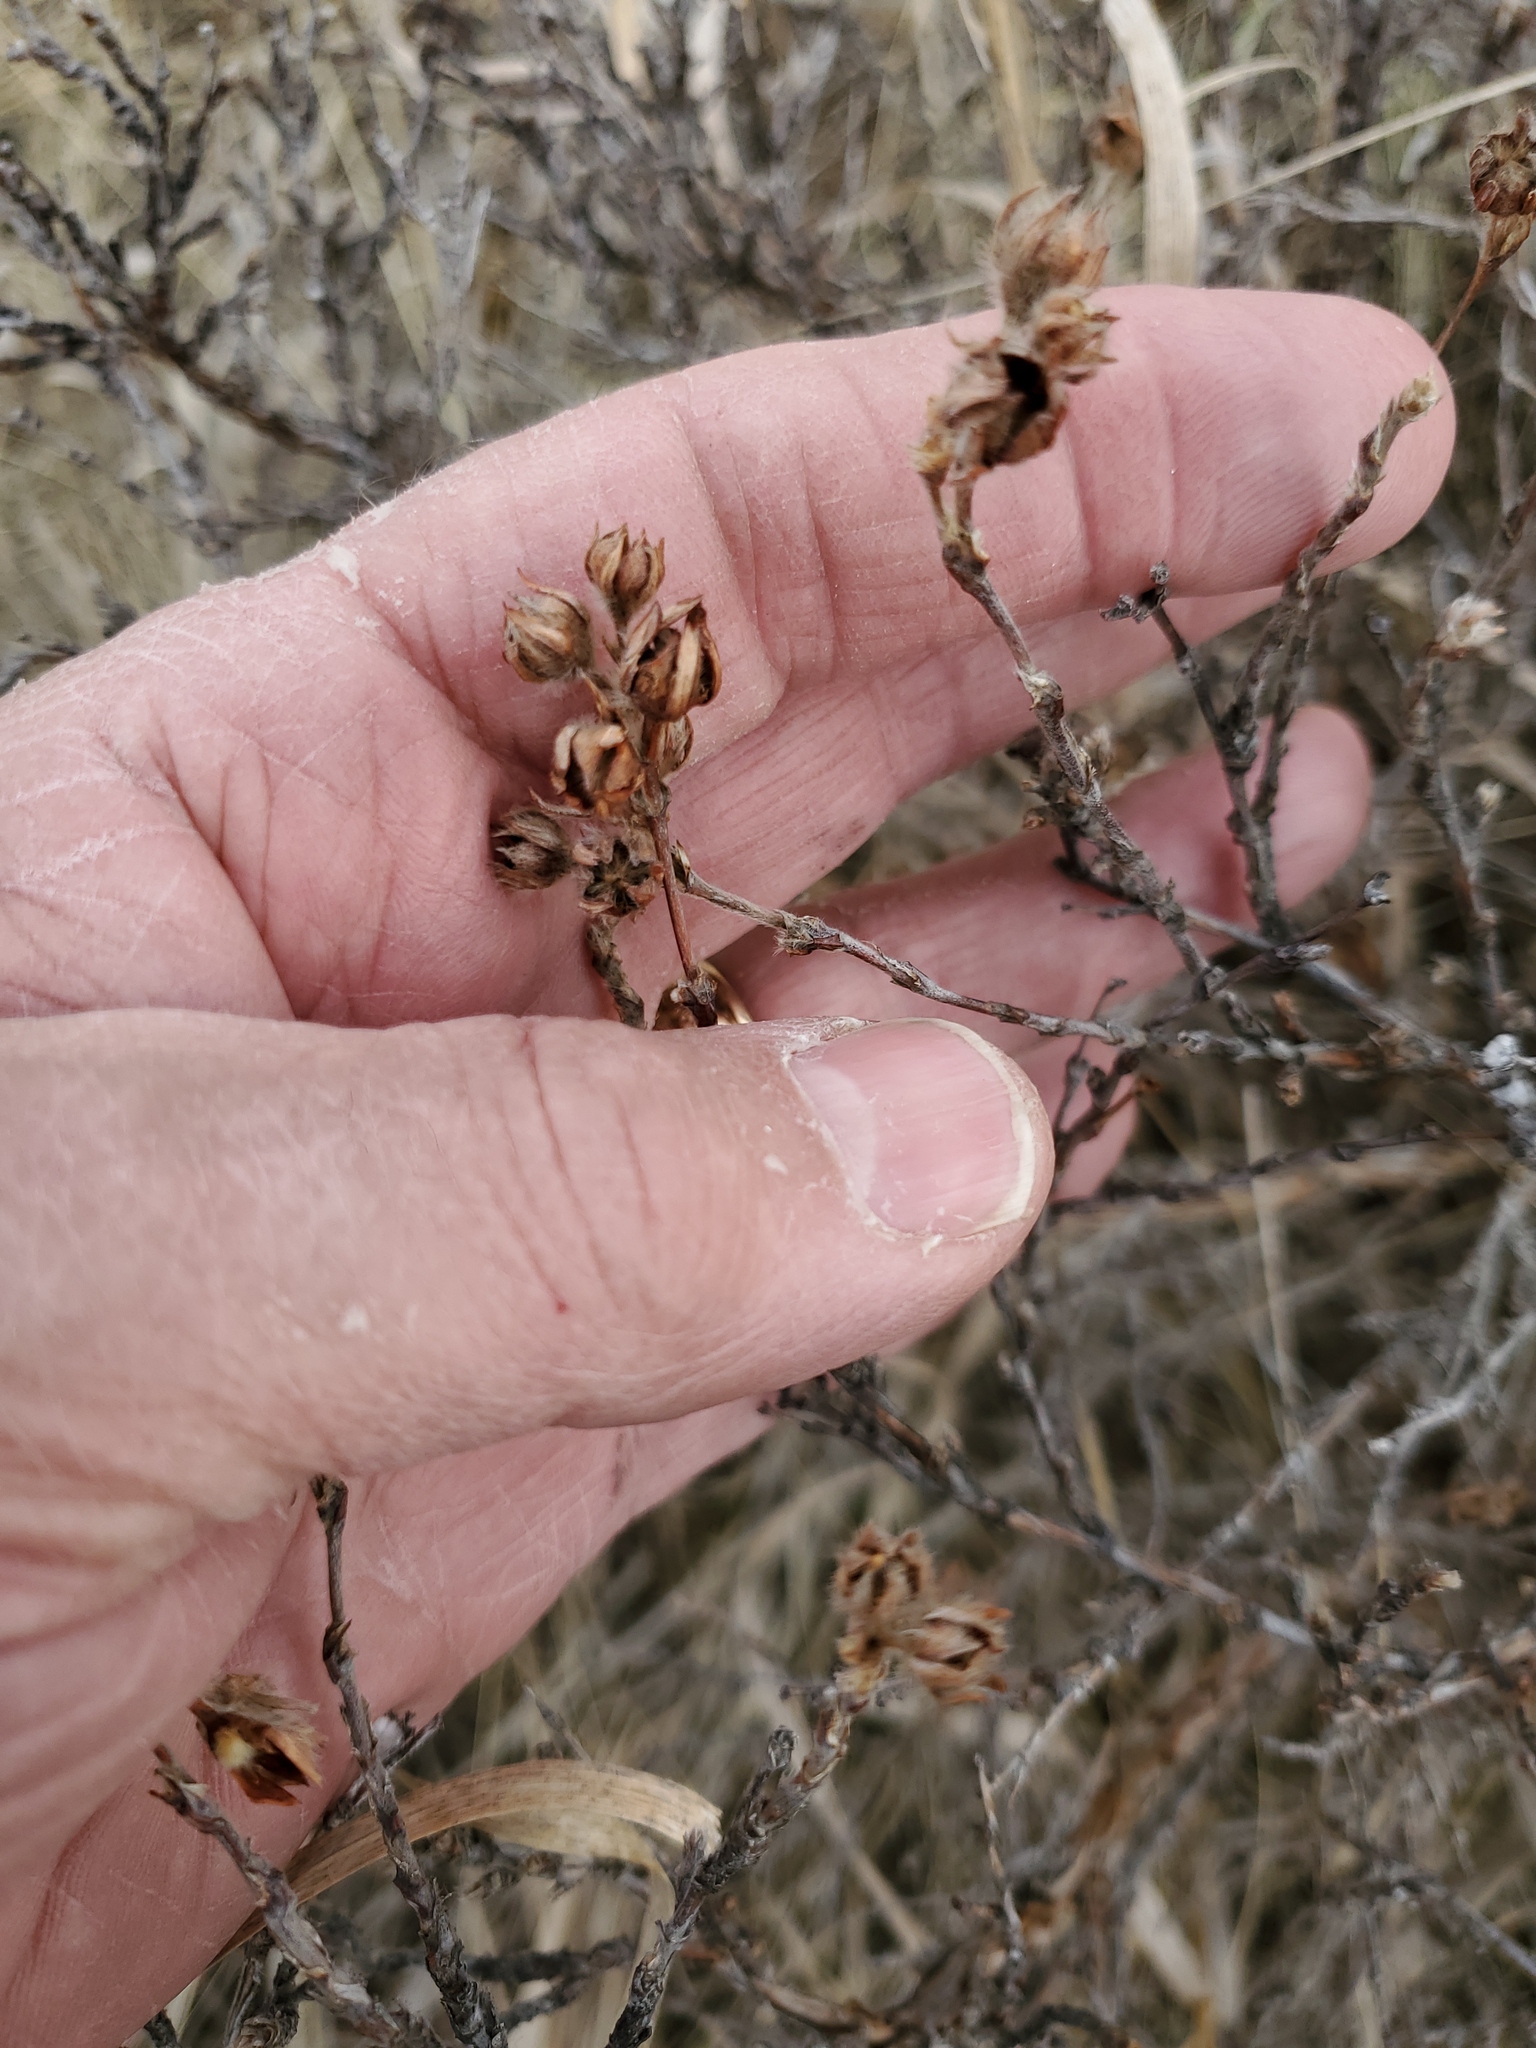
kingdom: Plantae
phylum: Tracheophyta
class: Magnoliopsida
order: Rosales
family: Rosaceae
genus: Dasiphora
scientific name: Dasiphora fruticosa
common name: Shrubby cinquefoil
